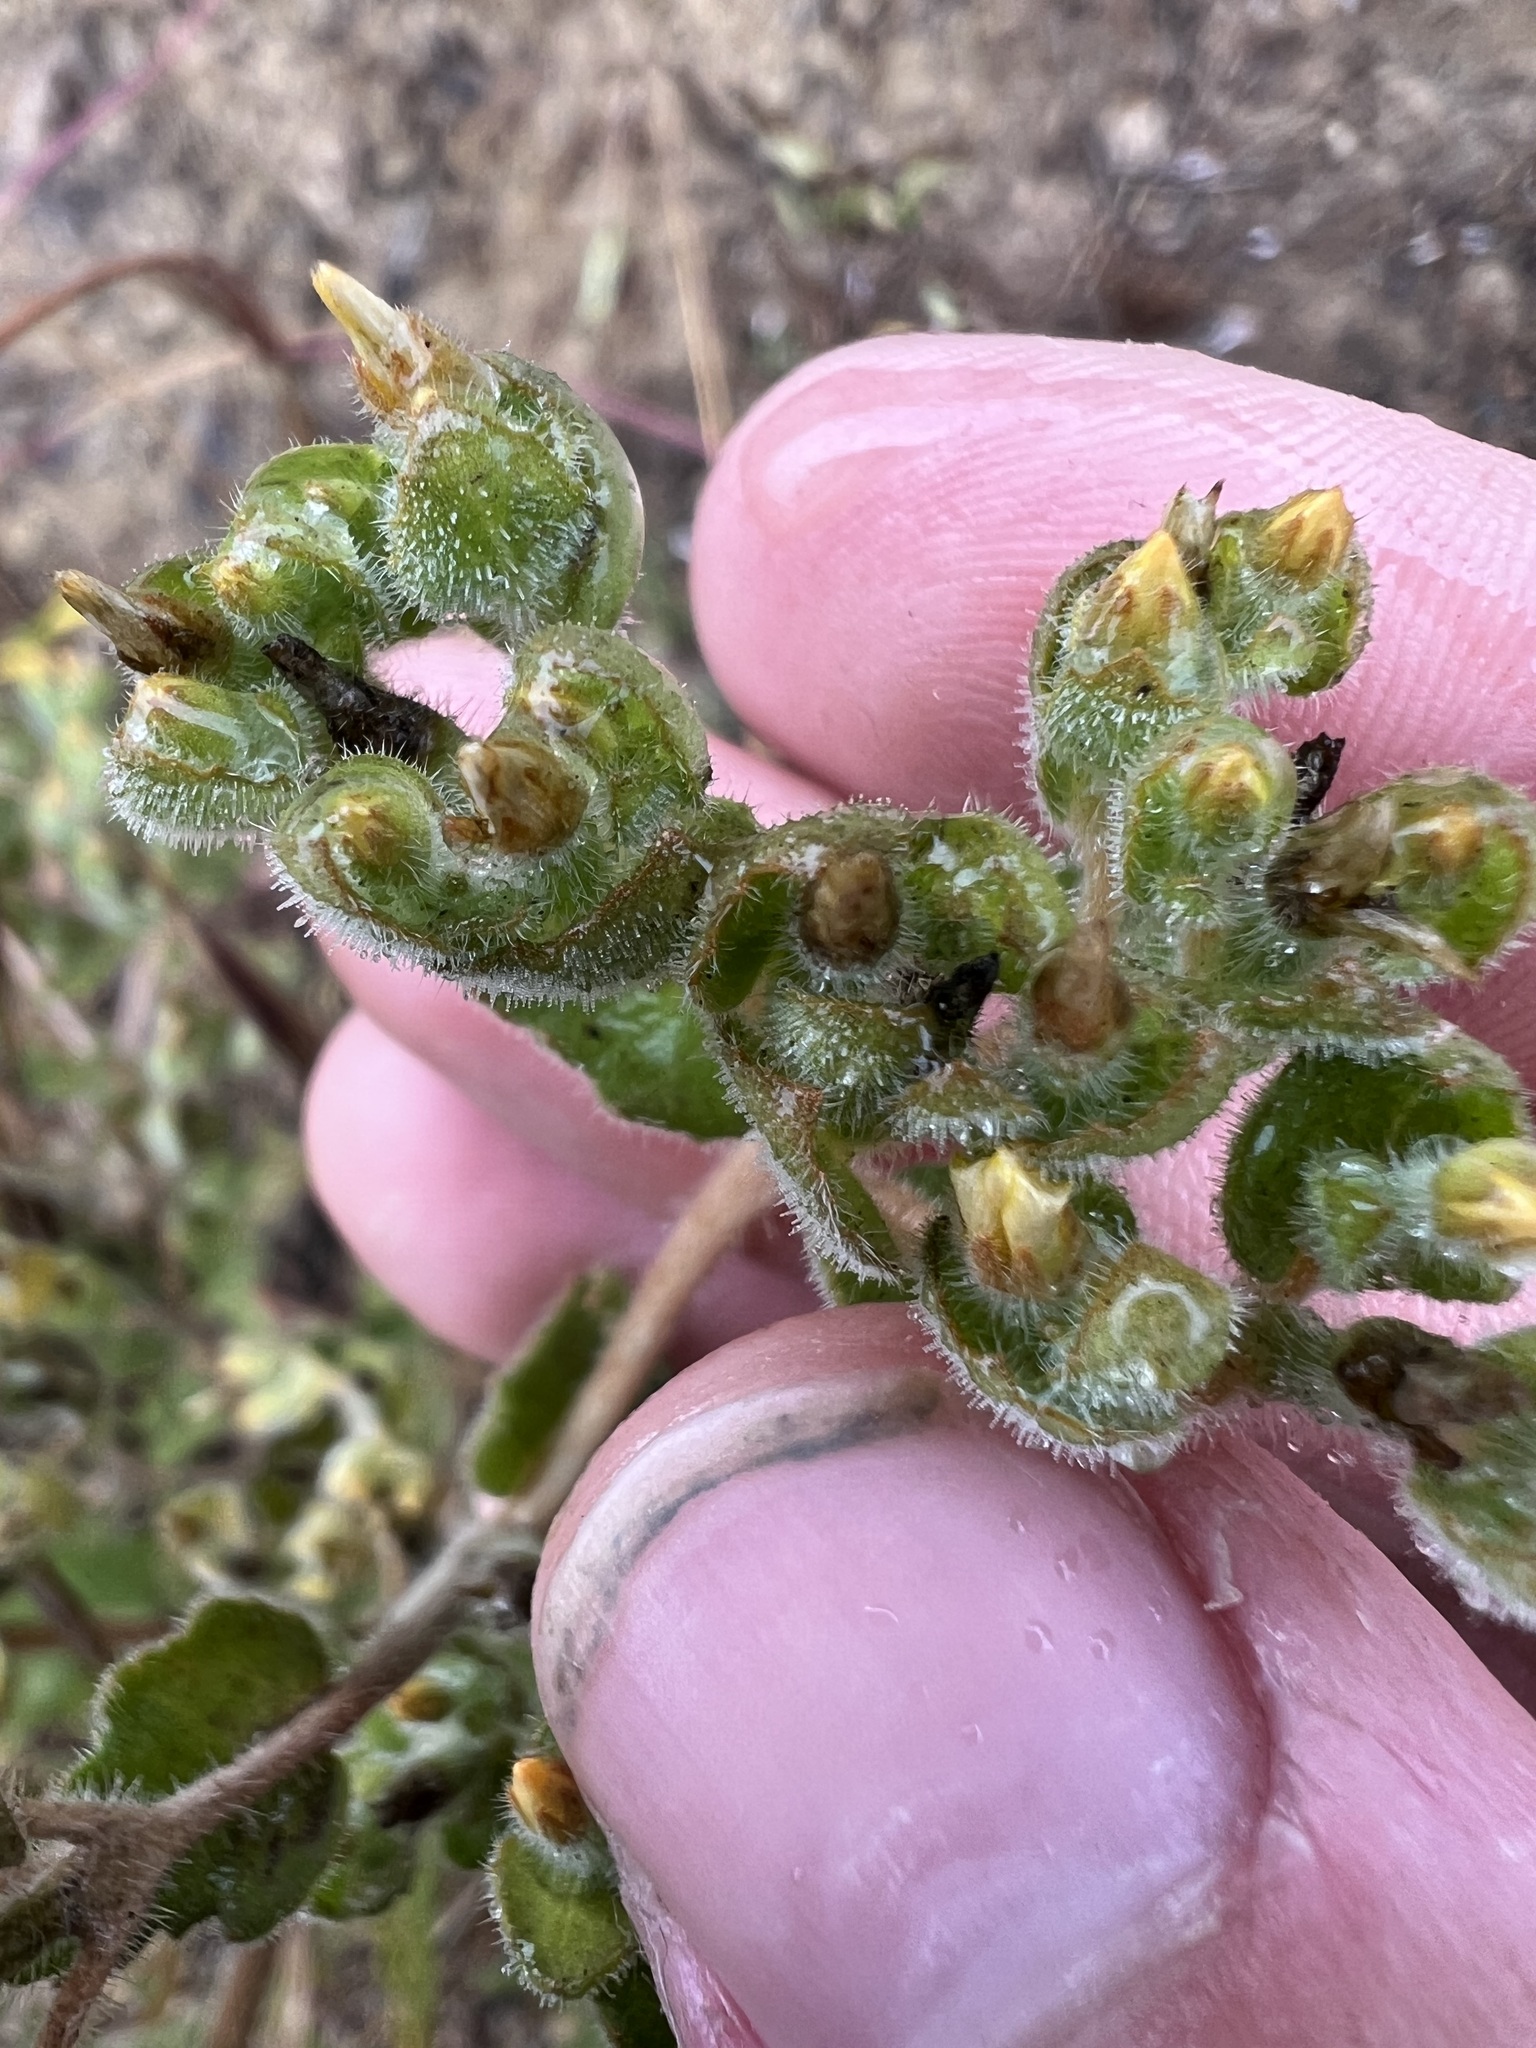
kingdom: Plantae
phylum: Tracheophyta
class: Magnoliopsida
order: Cornales
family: Loasaceae
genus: Mentzelia
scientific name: Mentzelia micrantha
